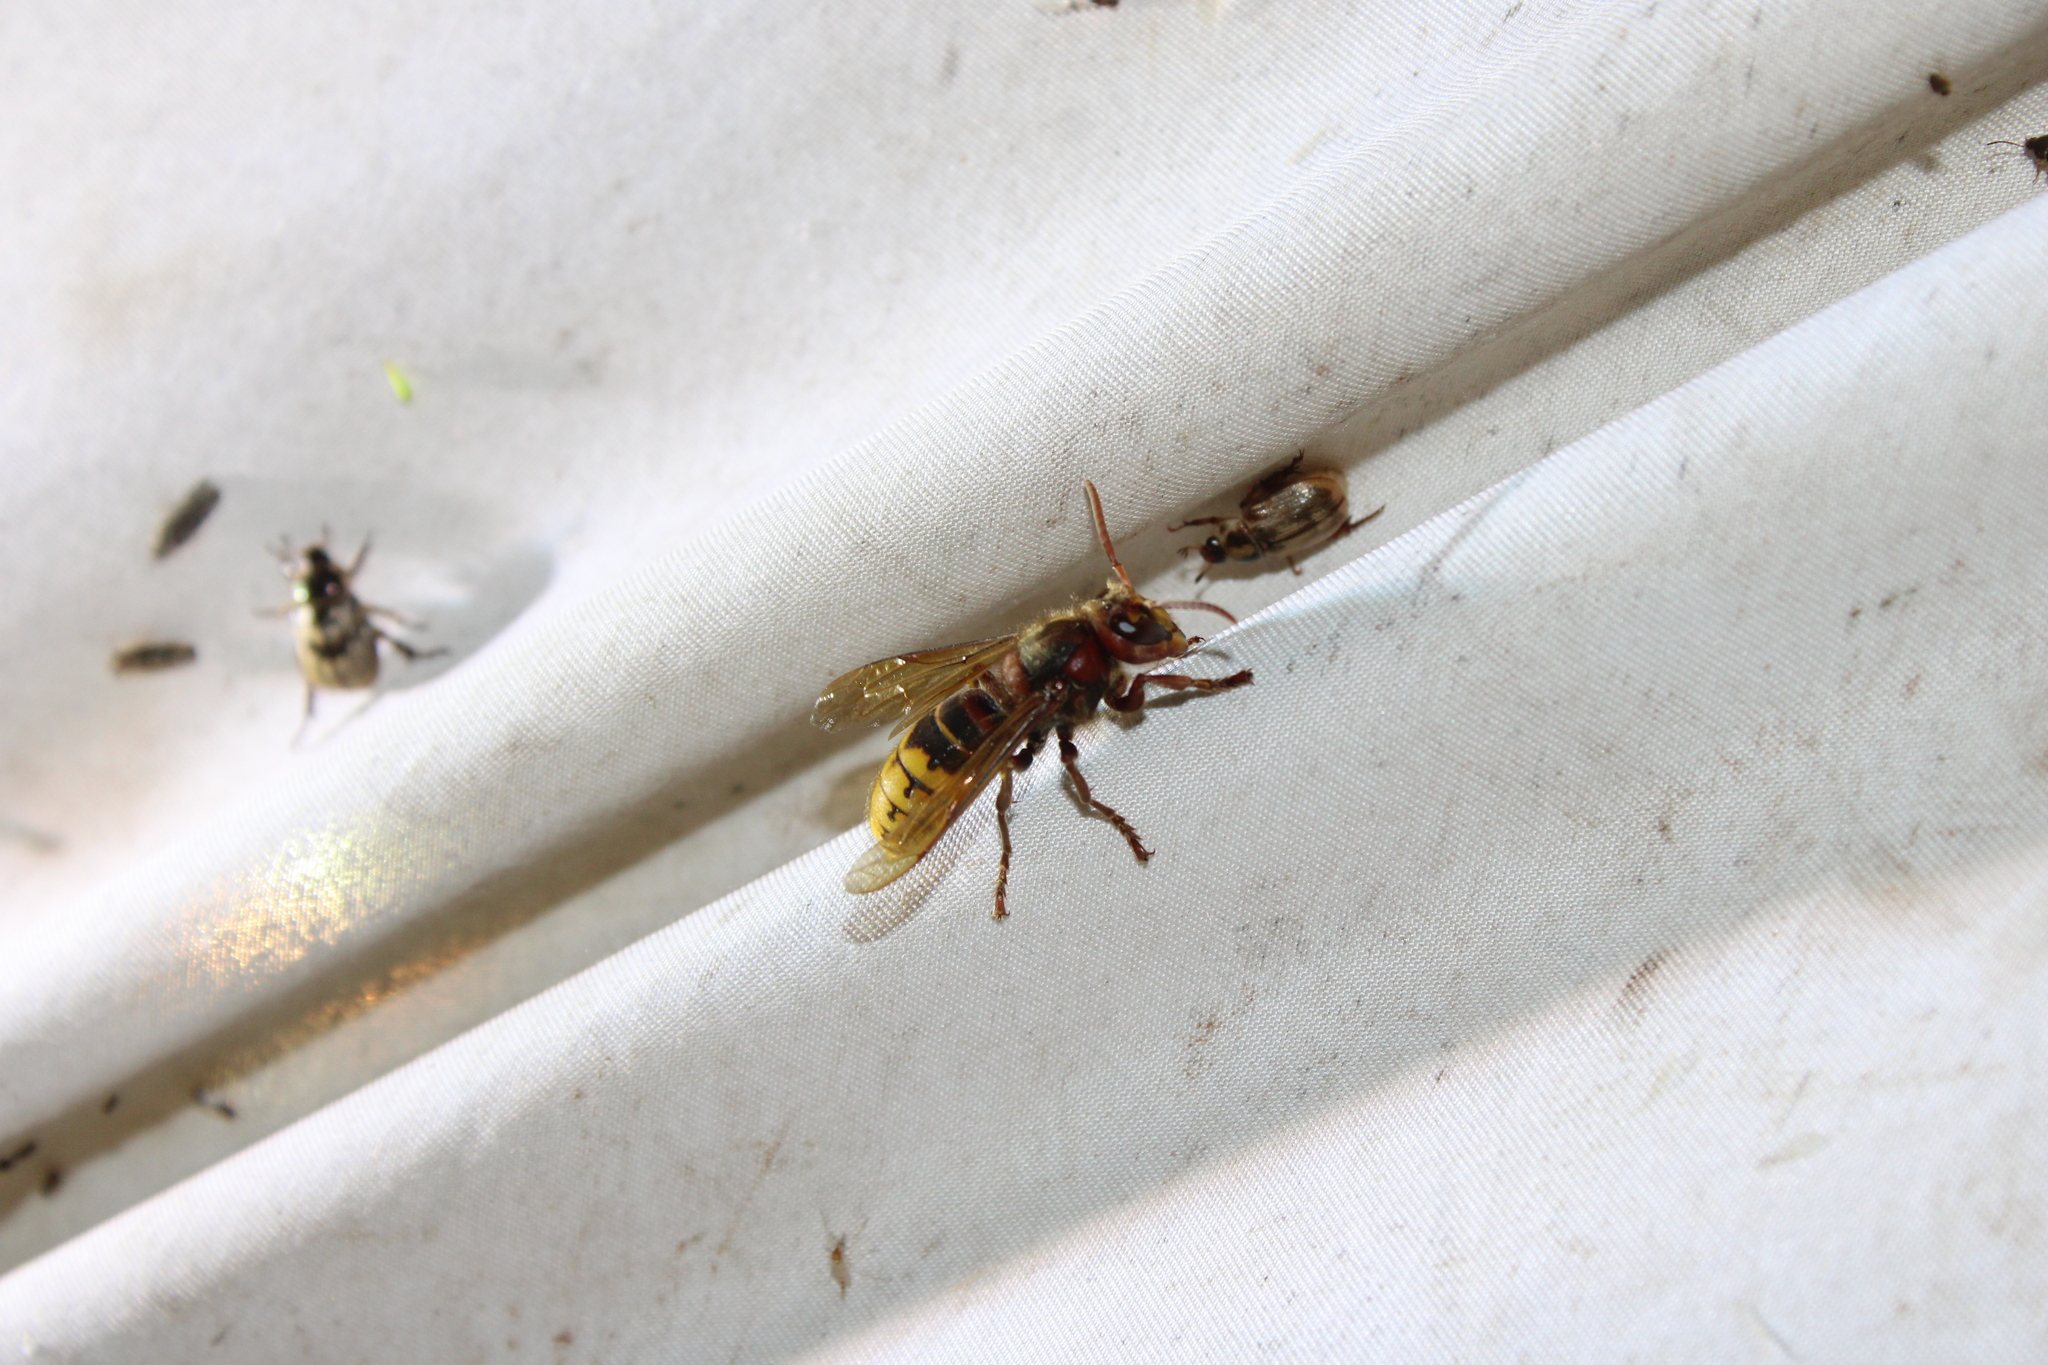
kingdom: Animalia
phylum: Arthropoda
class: Insecta
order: Hymenoptera
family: Vespidae
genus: Vespa
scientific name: Vespa crabro
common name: Hornet
